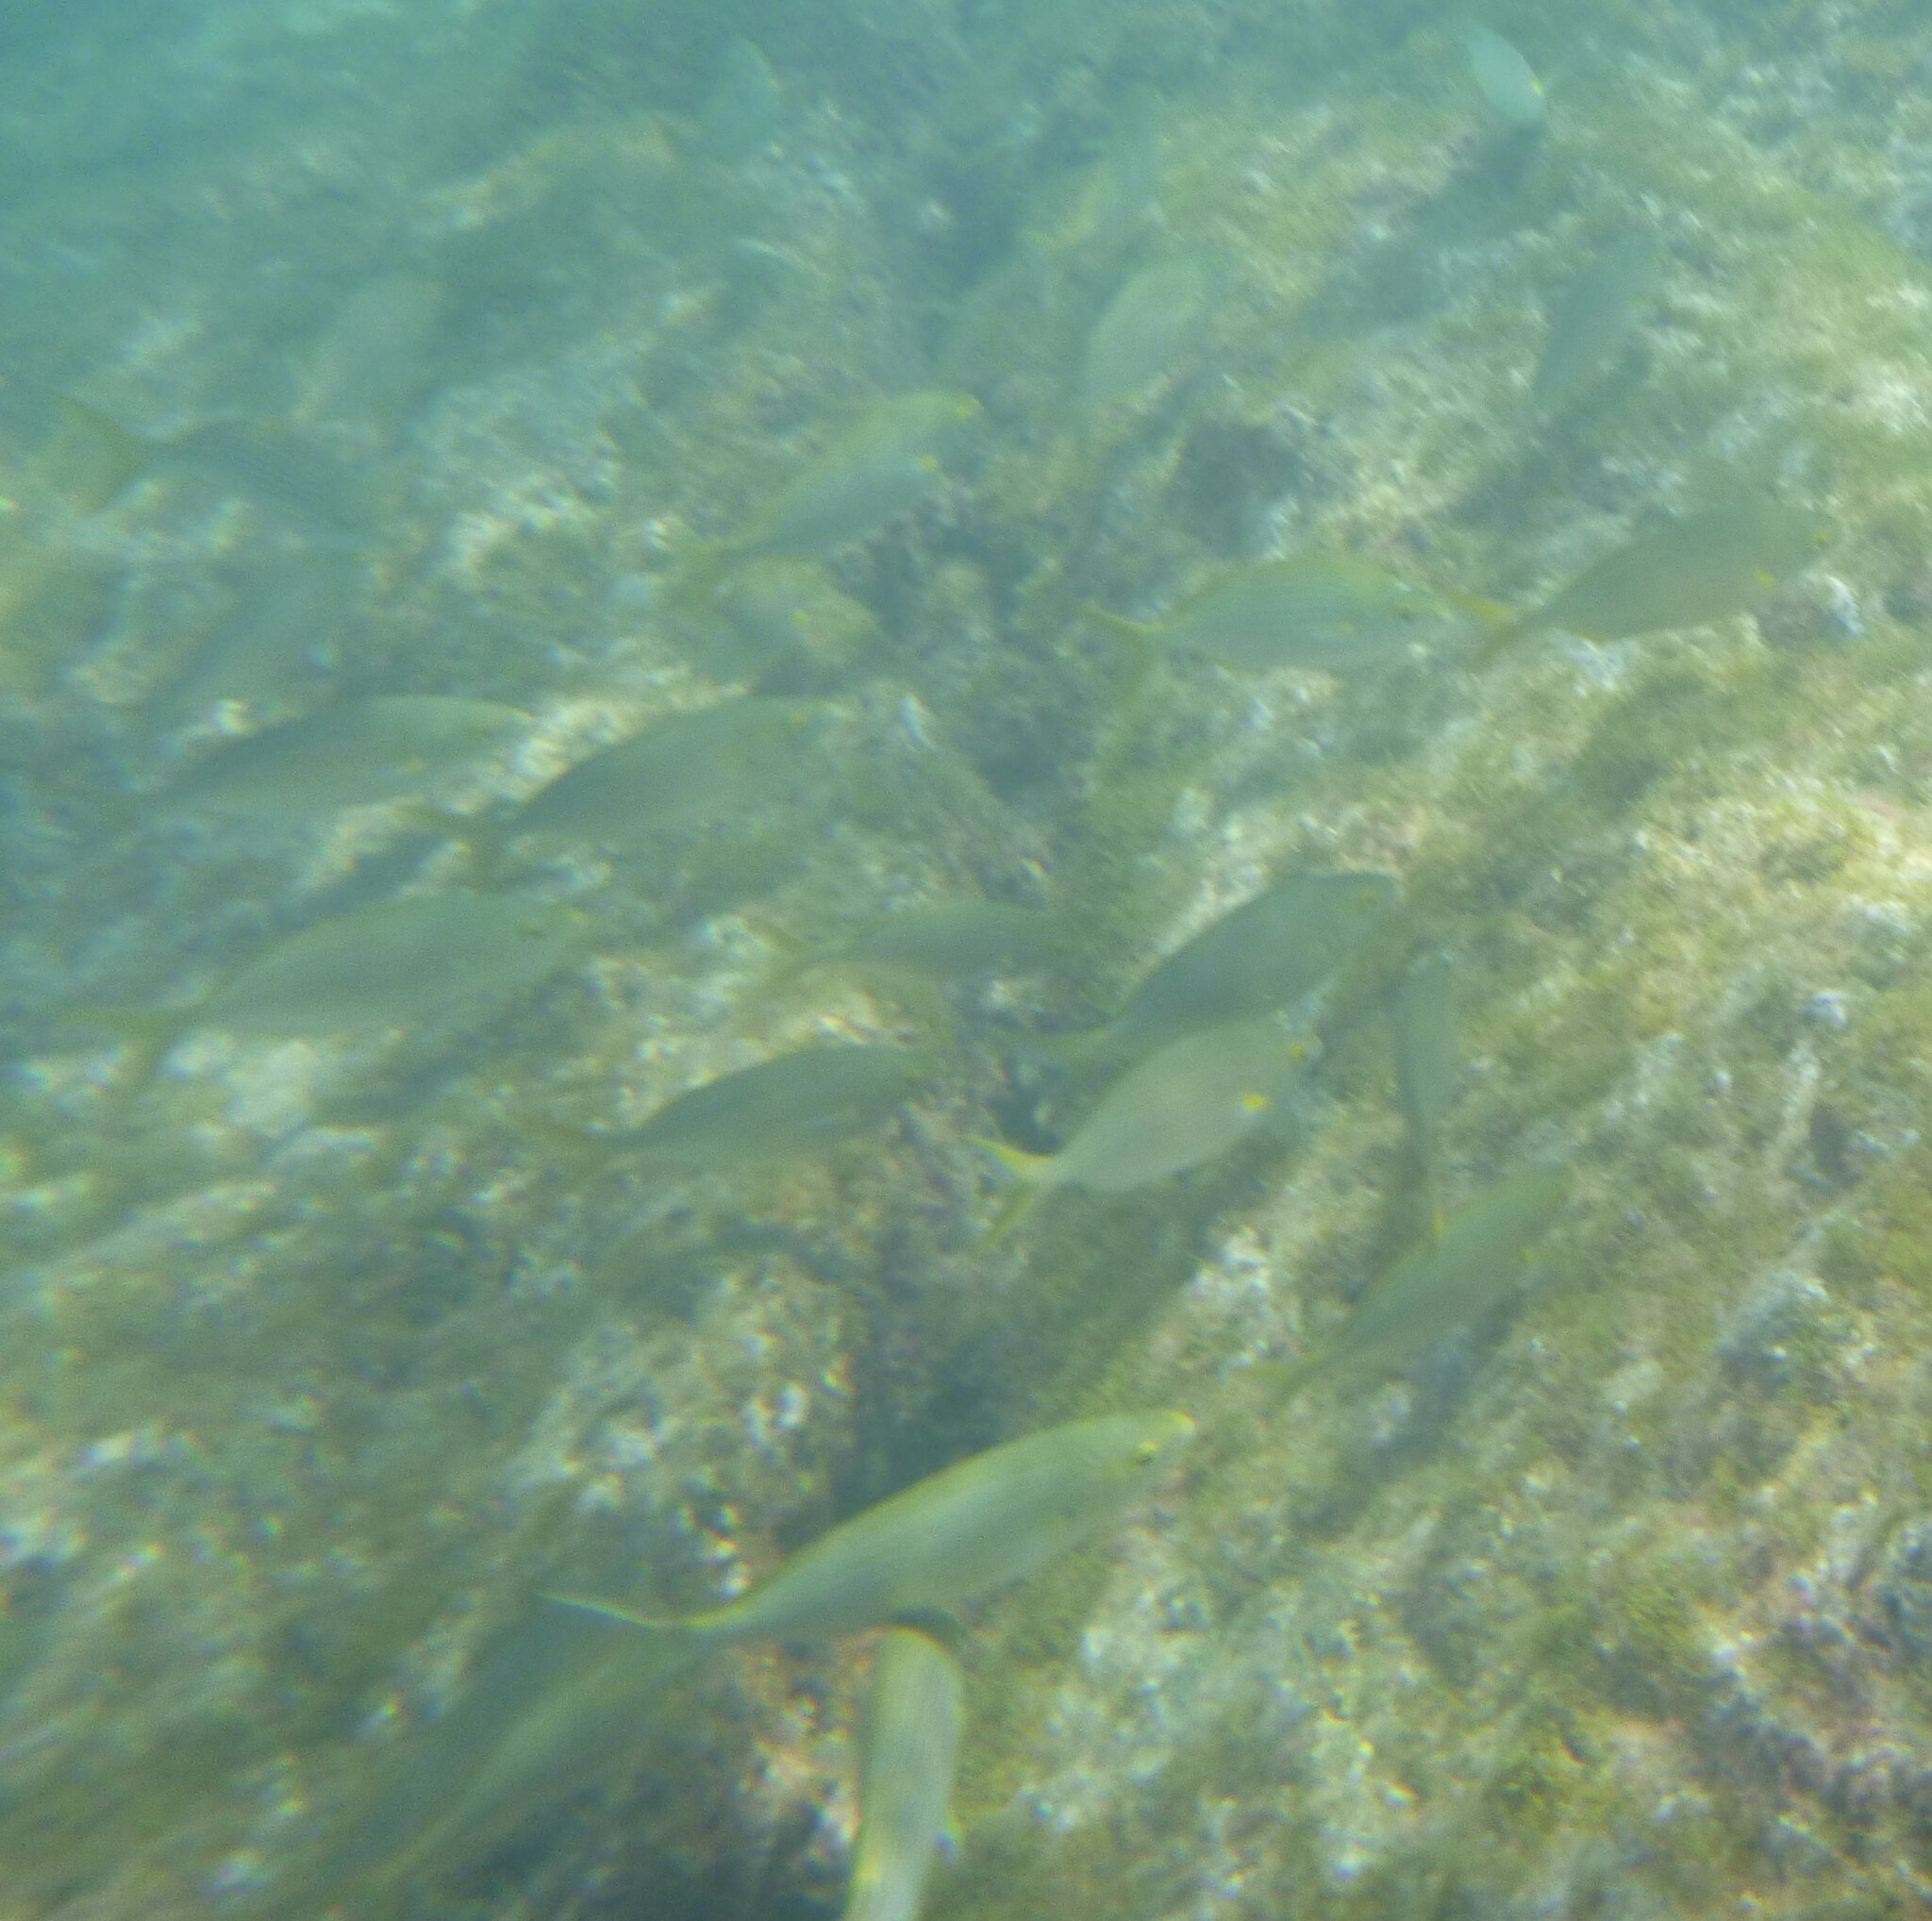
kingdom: Animalia
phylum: Chordata
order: Perciformes
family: Sparidae
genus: Sarpa
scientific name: Sarpa salpa
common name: Salema
